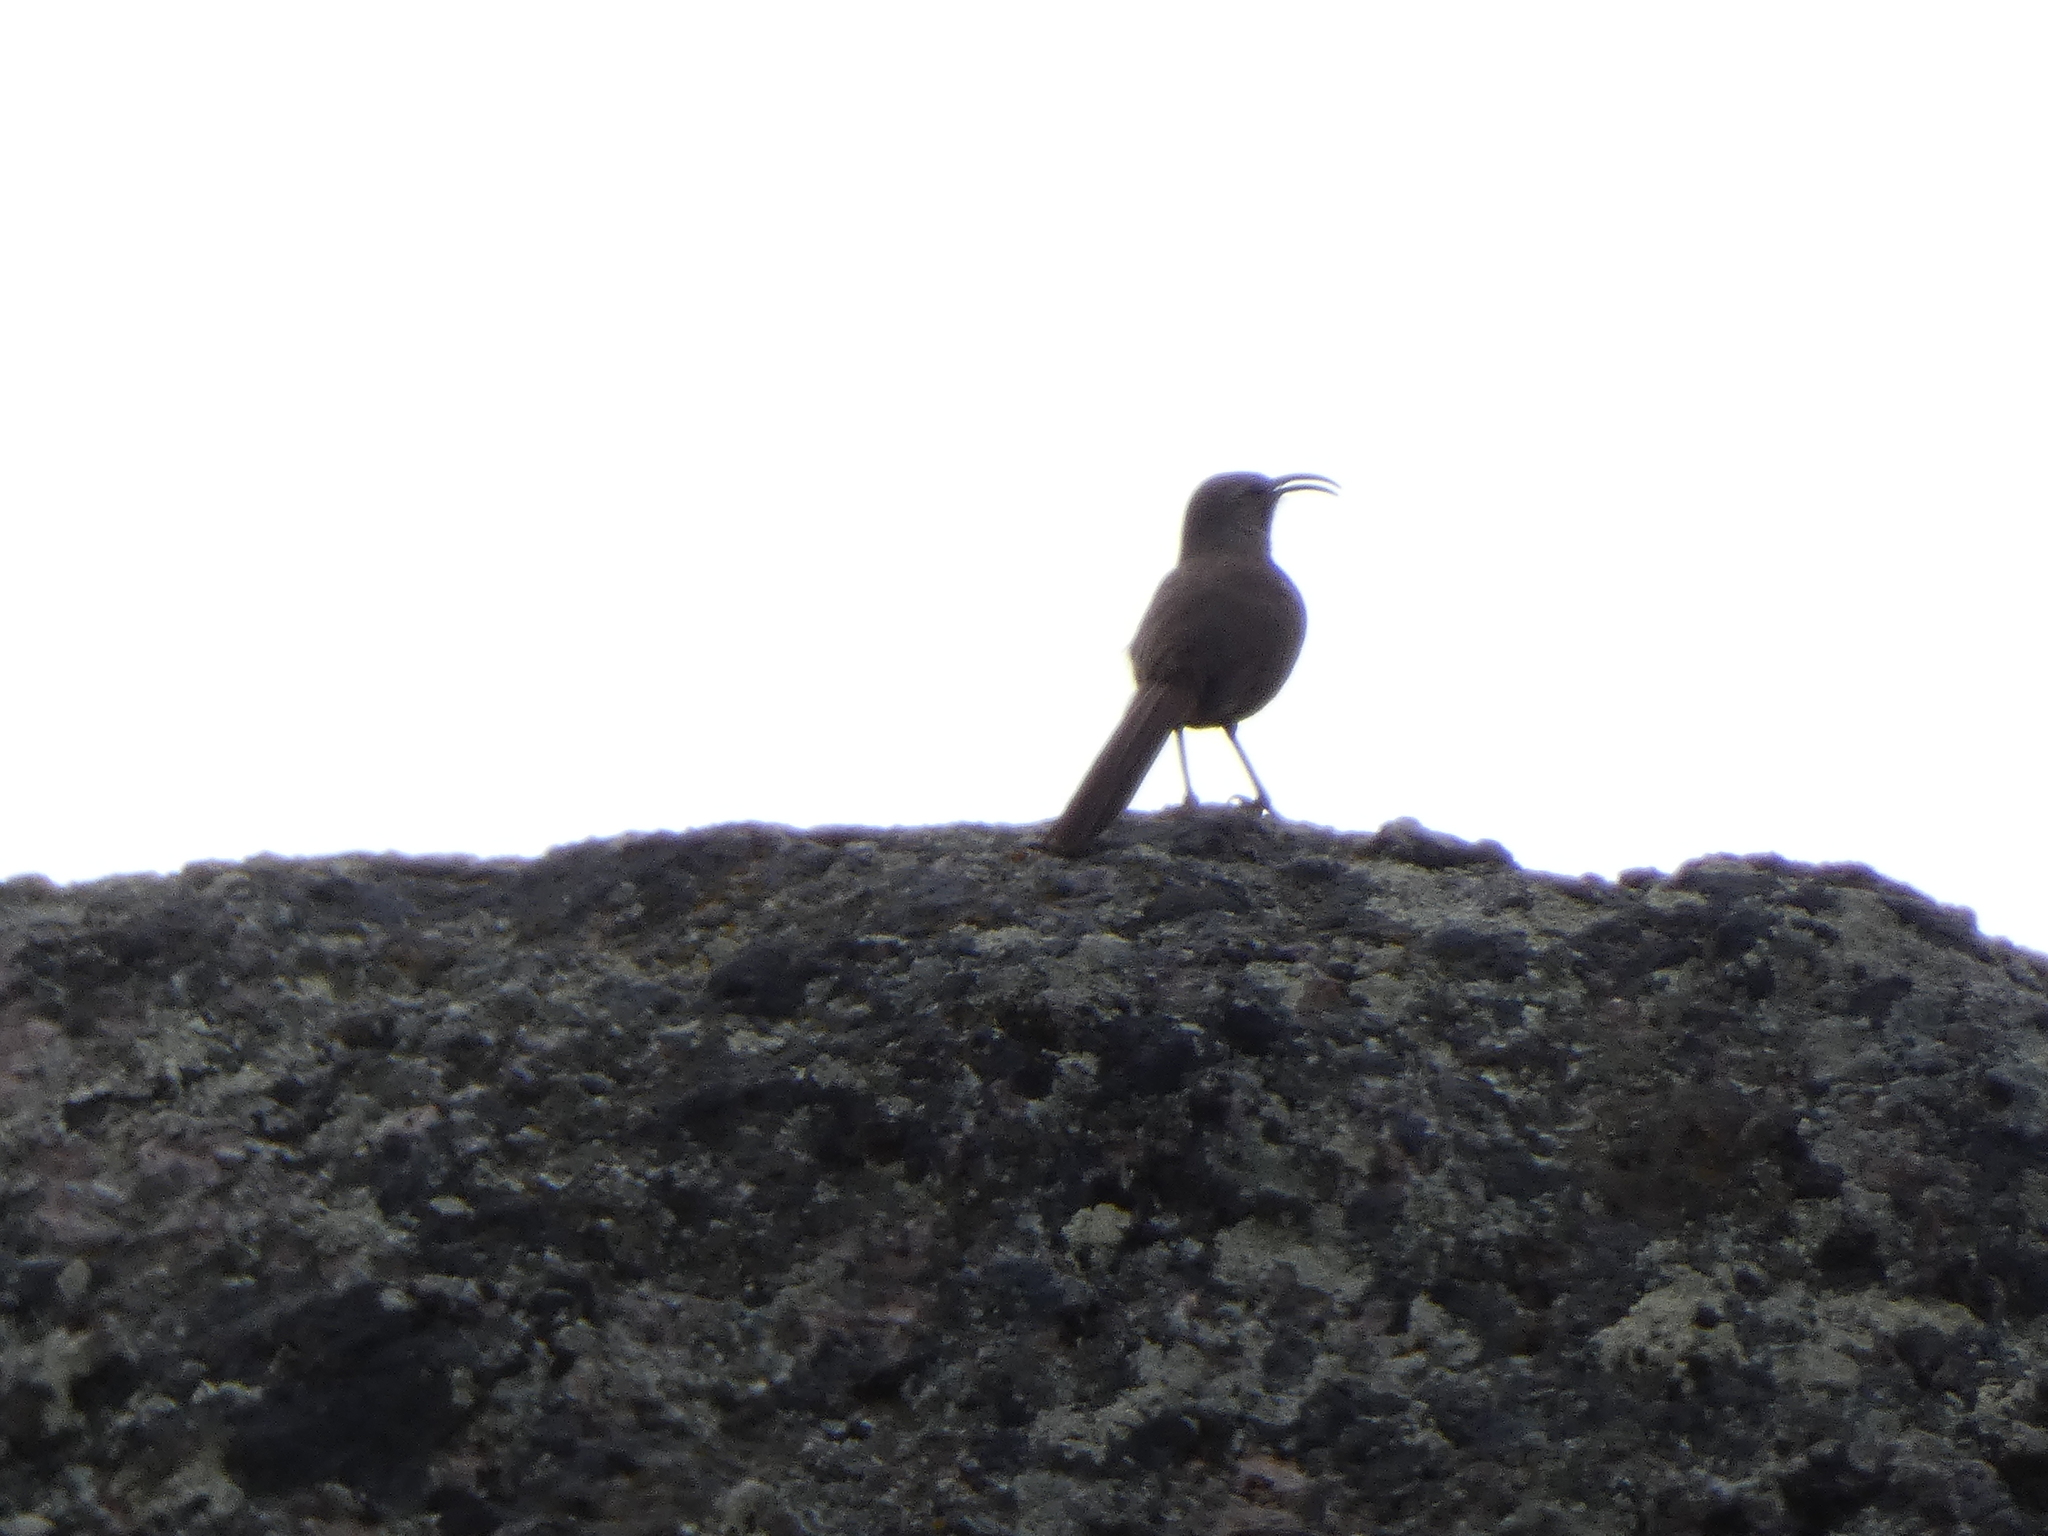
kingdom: Animalia
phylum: Chordata
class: Aves
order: Passeriformes
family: Mimidae
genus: Toxostoma
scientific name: Toxostoma redivivum
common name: California thrasher
